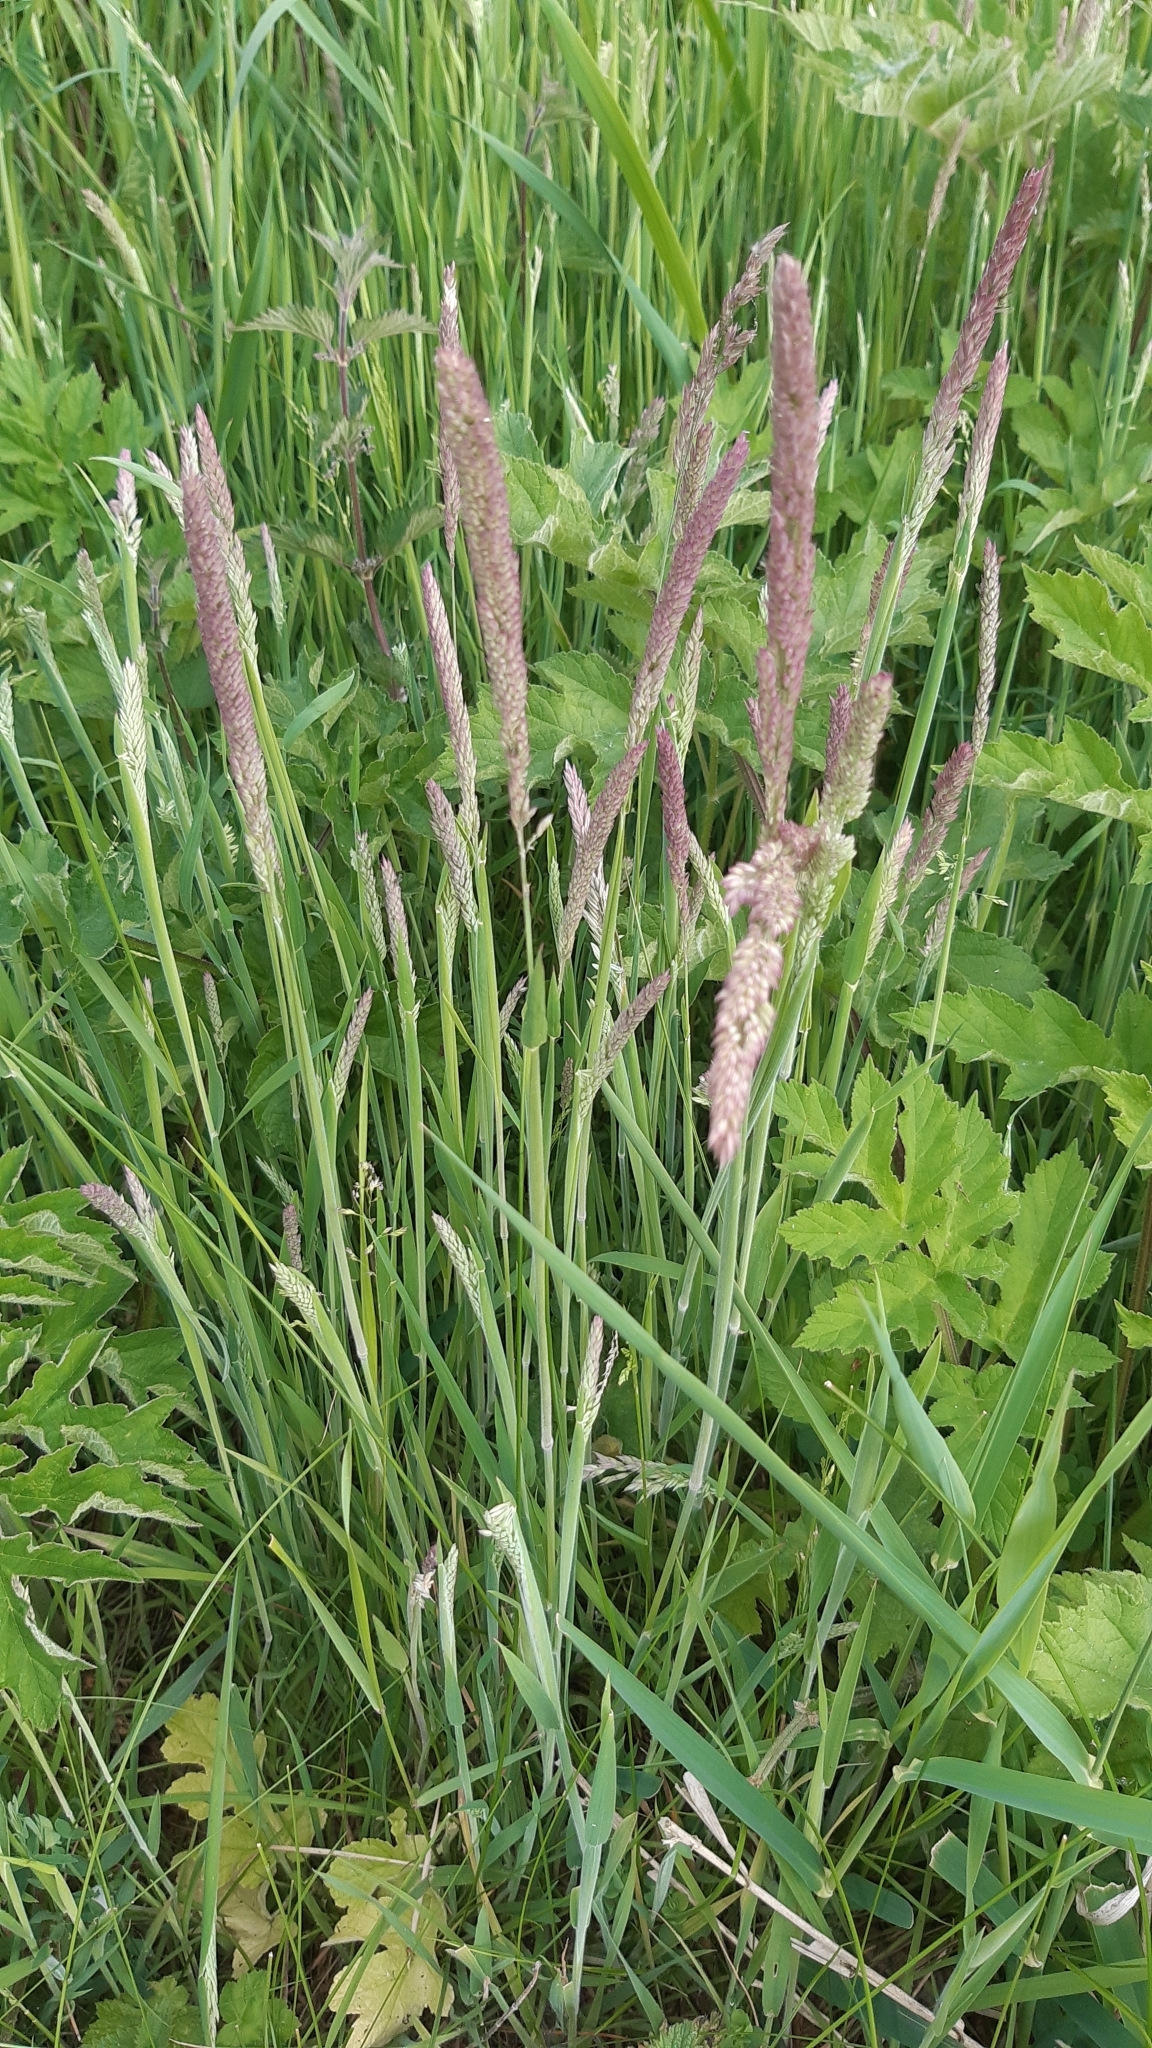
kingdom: Plantae
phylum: Tracheophyta
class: Liliopsida
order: Poales
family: Poaceae
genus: Holcus
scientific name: Holcus lanatus
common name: Yorkshire-fog
